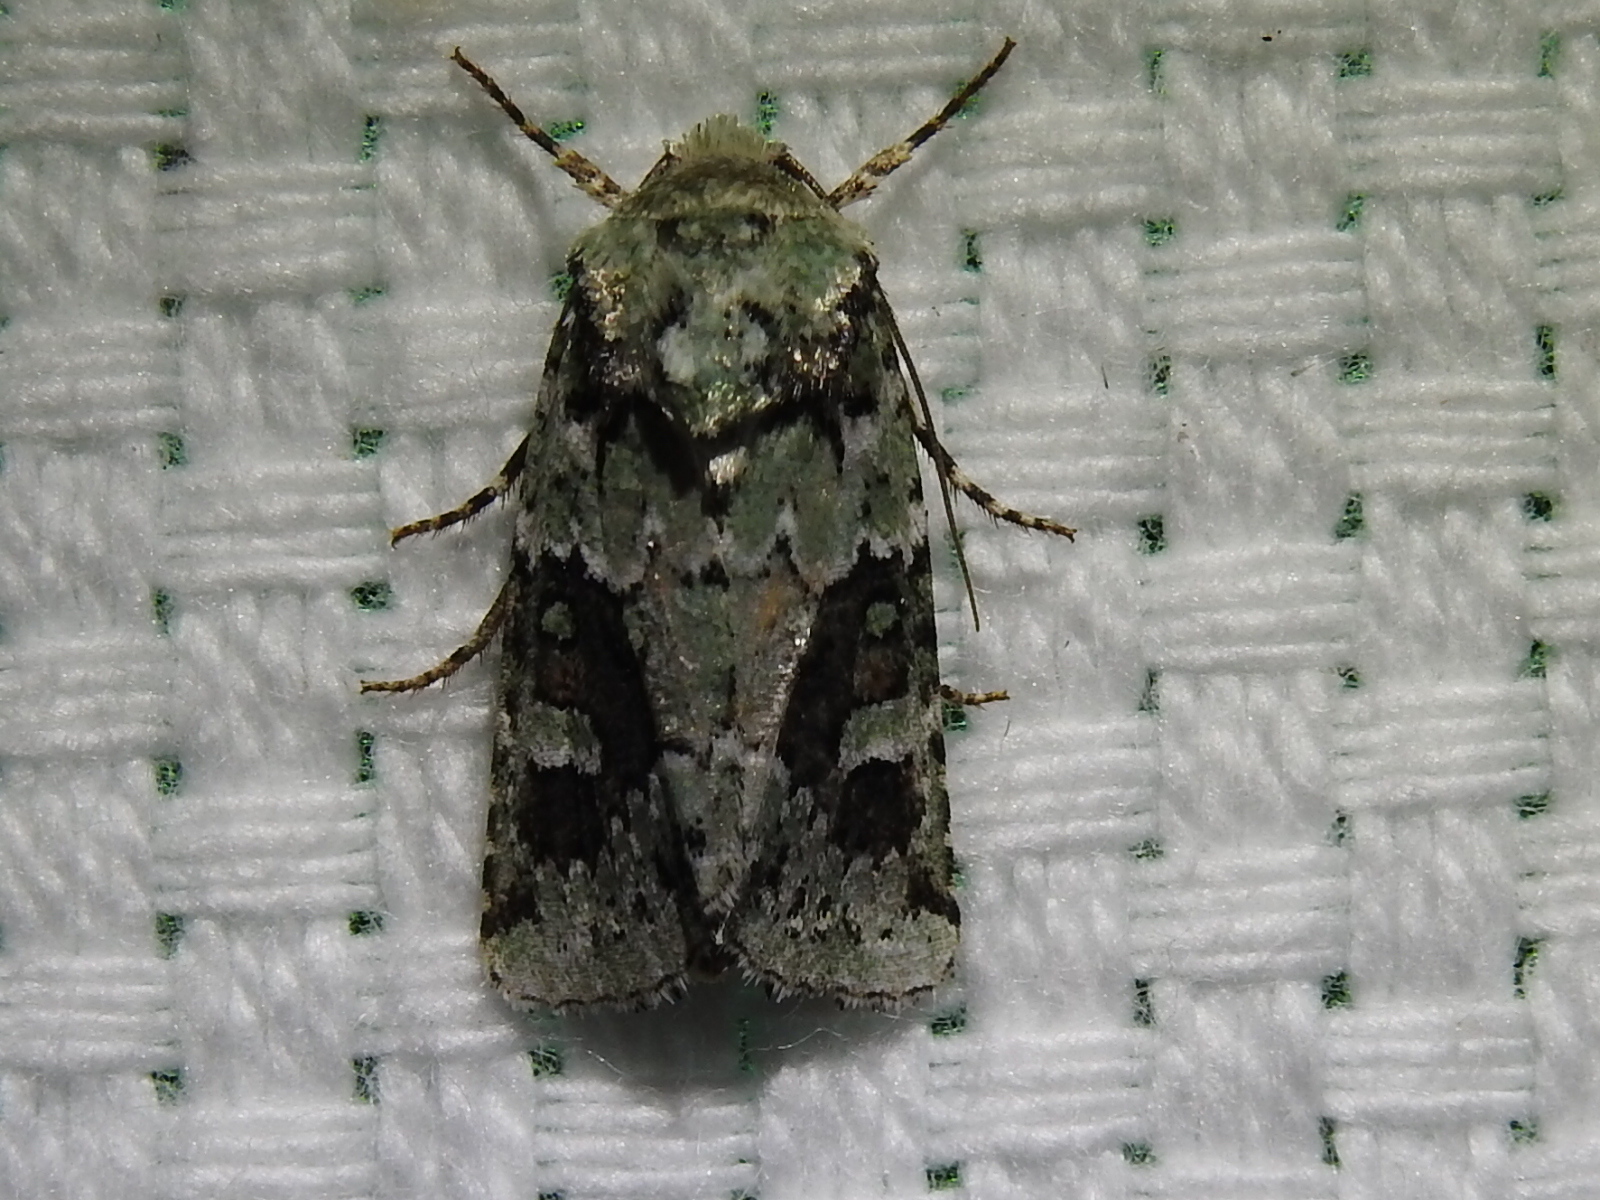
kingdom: Animalia
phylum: Arthropoda
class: Insecta
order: Lepidoptera
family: Noctuidae
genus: Lacinipolia
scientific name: Lacinipolia laudabilis
